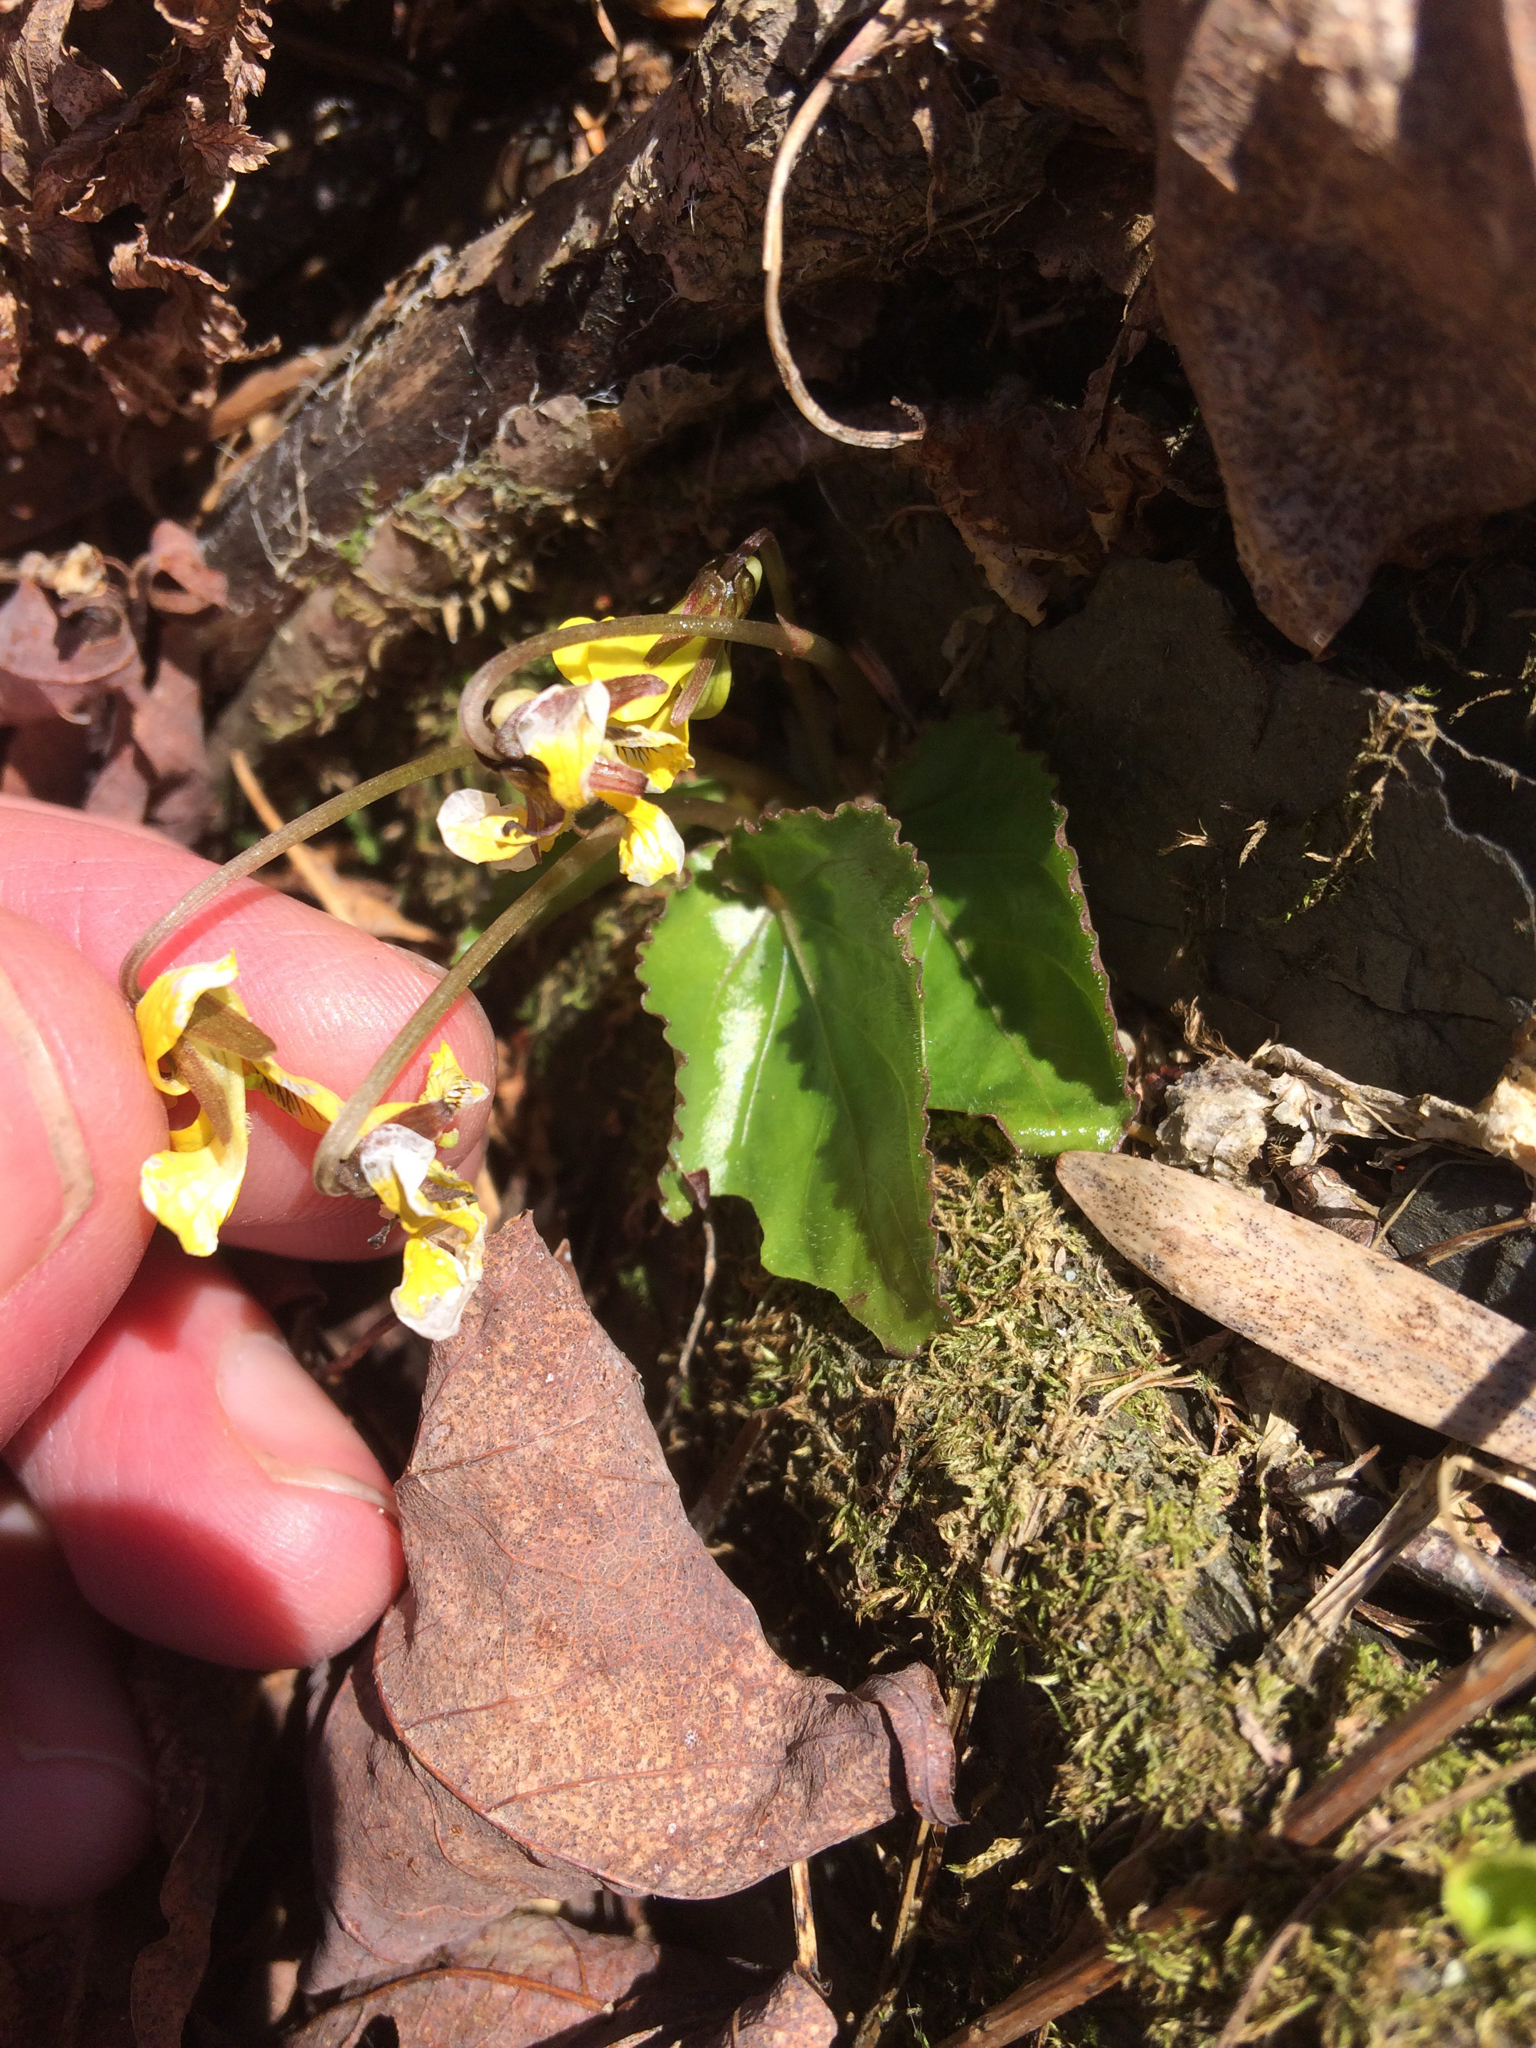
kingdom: Plantae
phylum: Tracheophyta
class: Magnoliopsida
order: Malpighiales
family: Violaceae
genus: Viola
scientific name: Viola rotundifolia
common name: Early yellow violet
